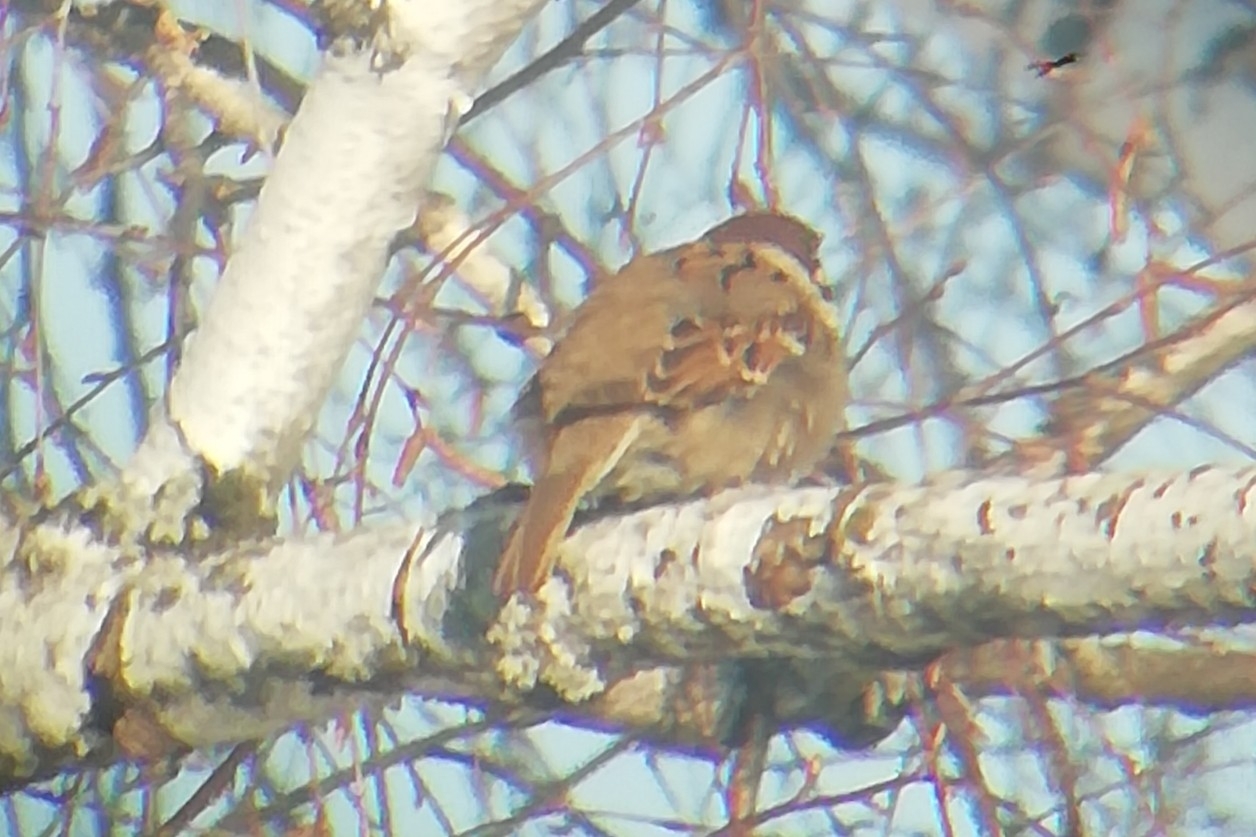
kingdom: Animalia
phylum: Chordata
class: Aves
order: Passeriformes
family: Passeridae
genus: Passer
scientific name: Passer montanus
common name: Eurasian tree sparrow
